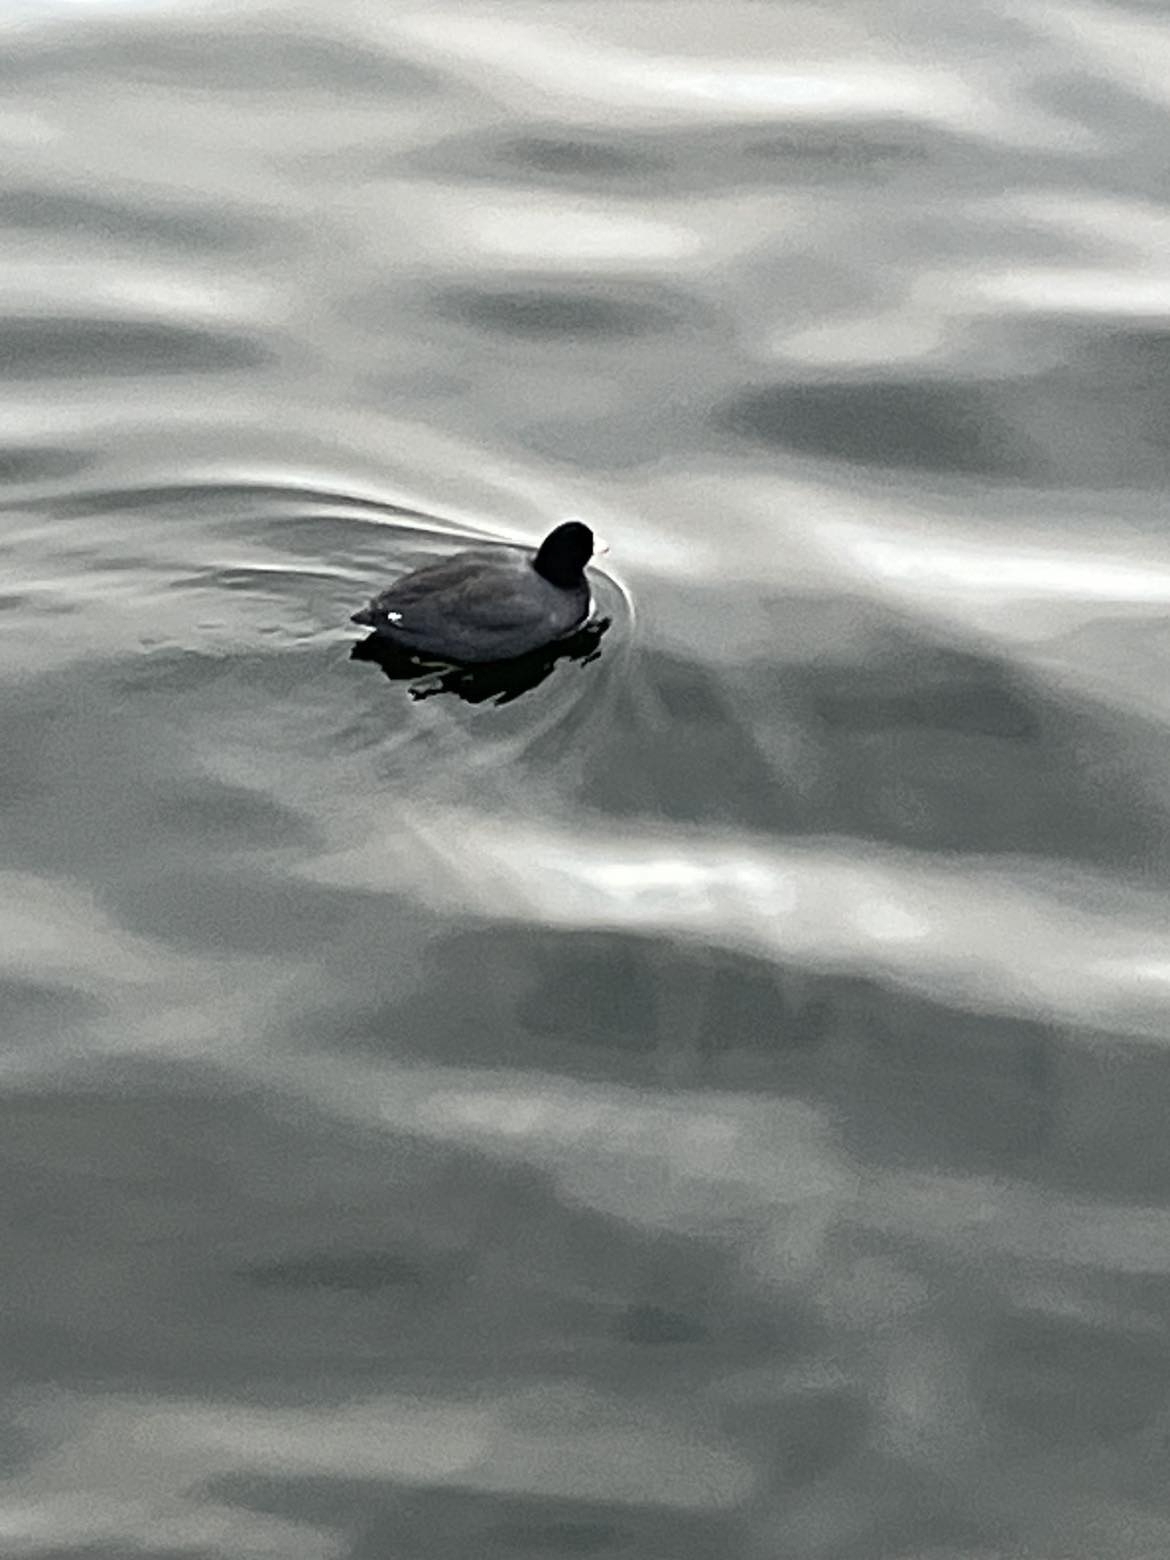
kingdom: Animalia
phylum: Chordata
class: Aves
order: Gruiformes
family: Rallidae
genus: Fulica
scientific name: Fulica americana
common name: American coot
